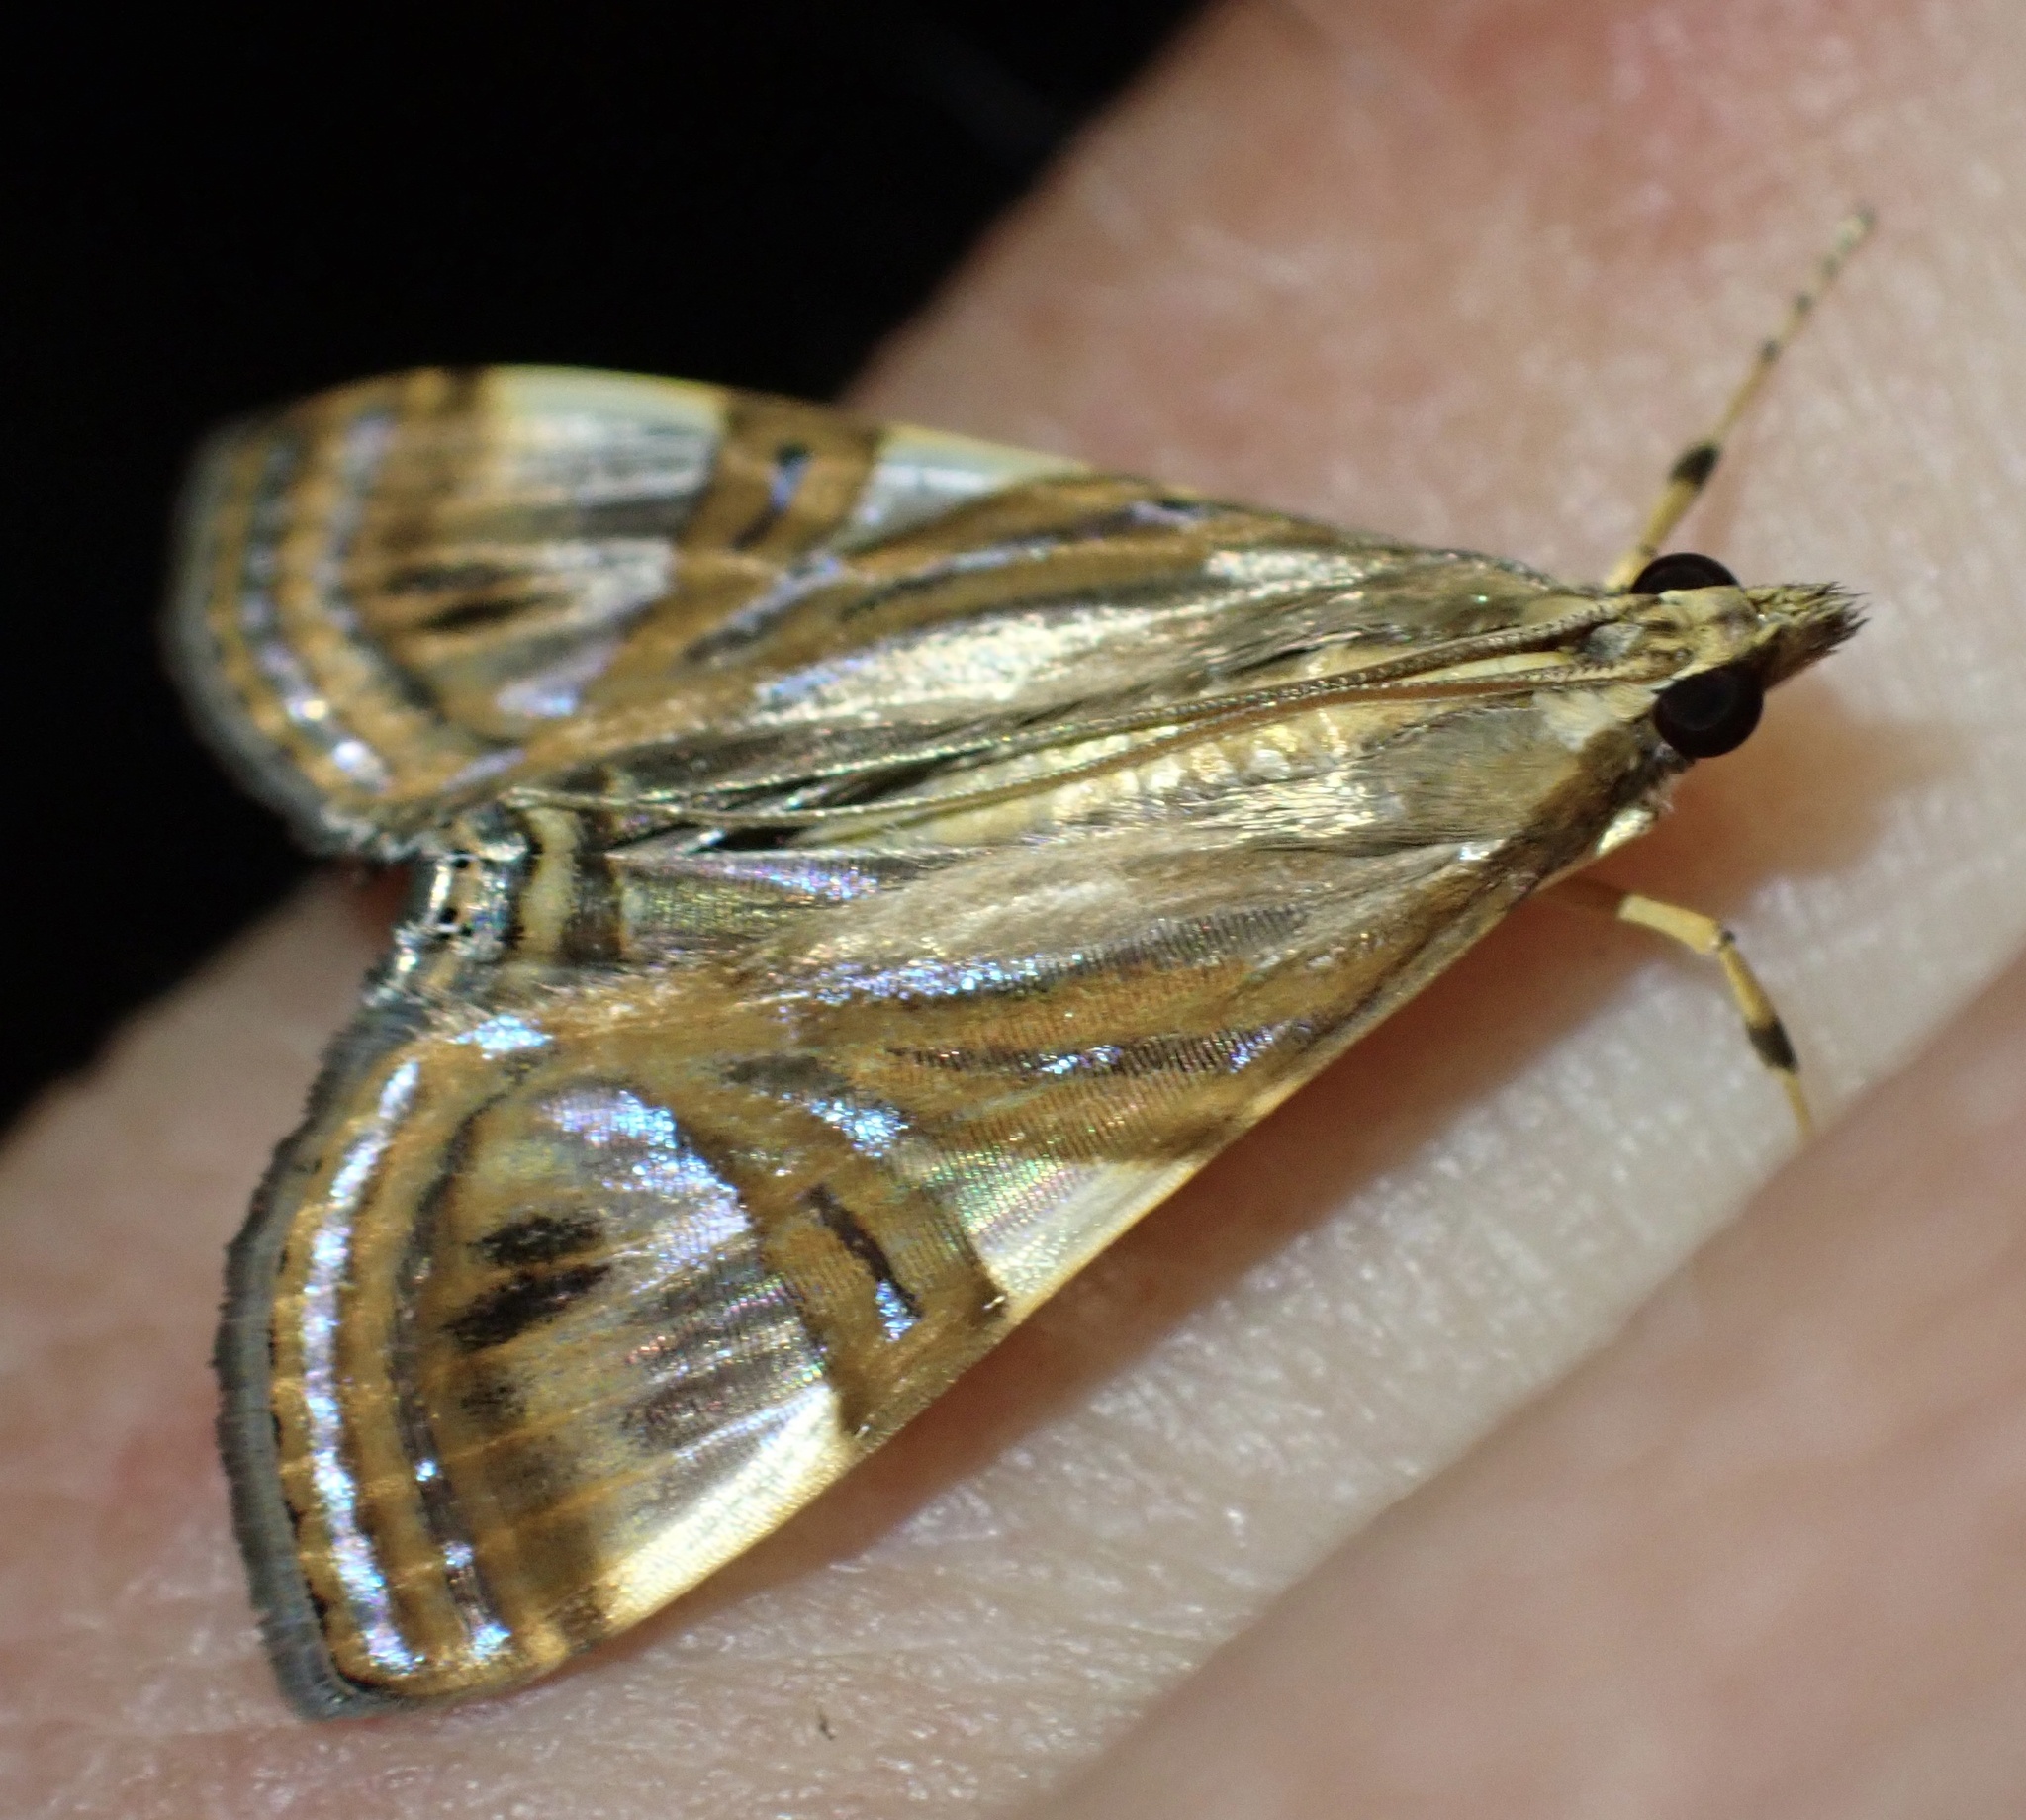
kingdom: Animalia
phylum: Arthropoda
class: Insecta
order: Lepidoptera
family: Crambidae
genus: Glyphodes
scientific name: Glyphodes
